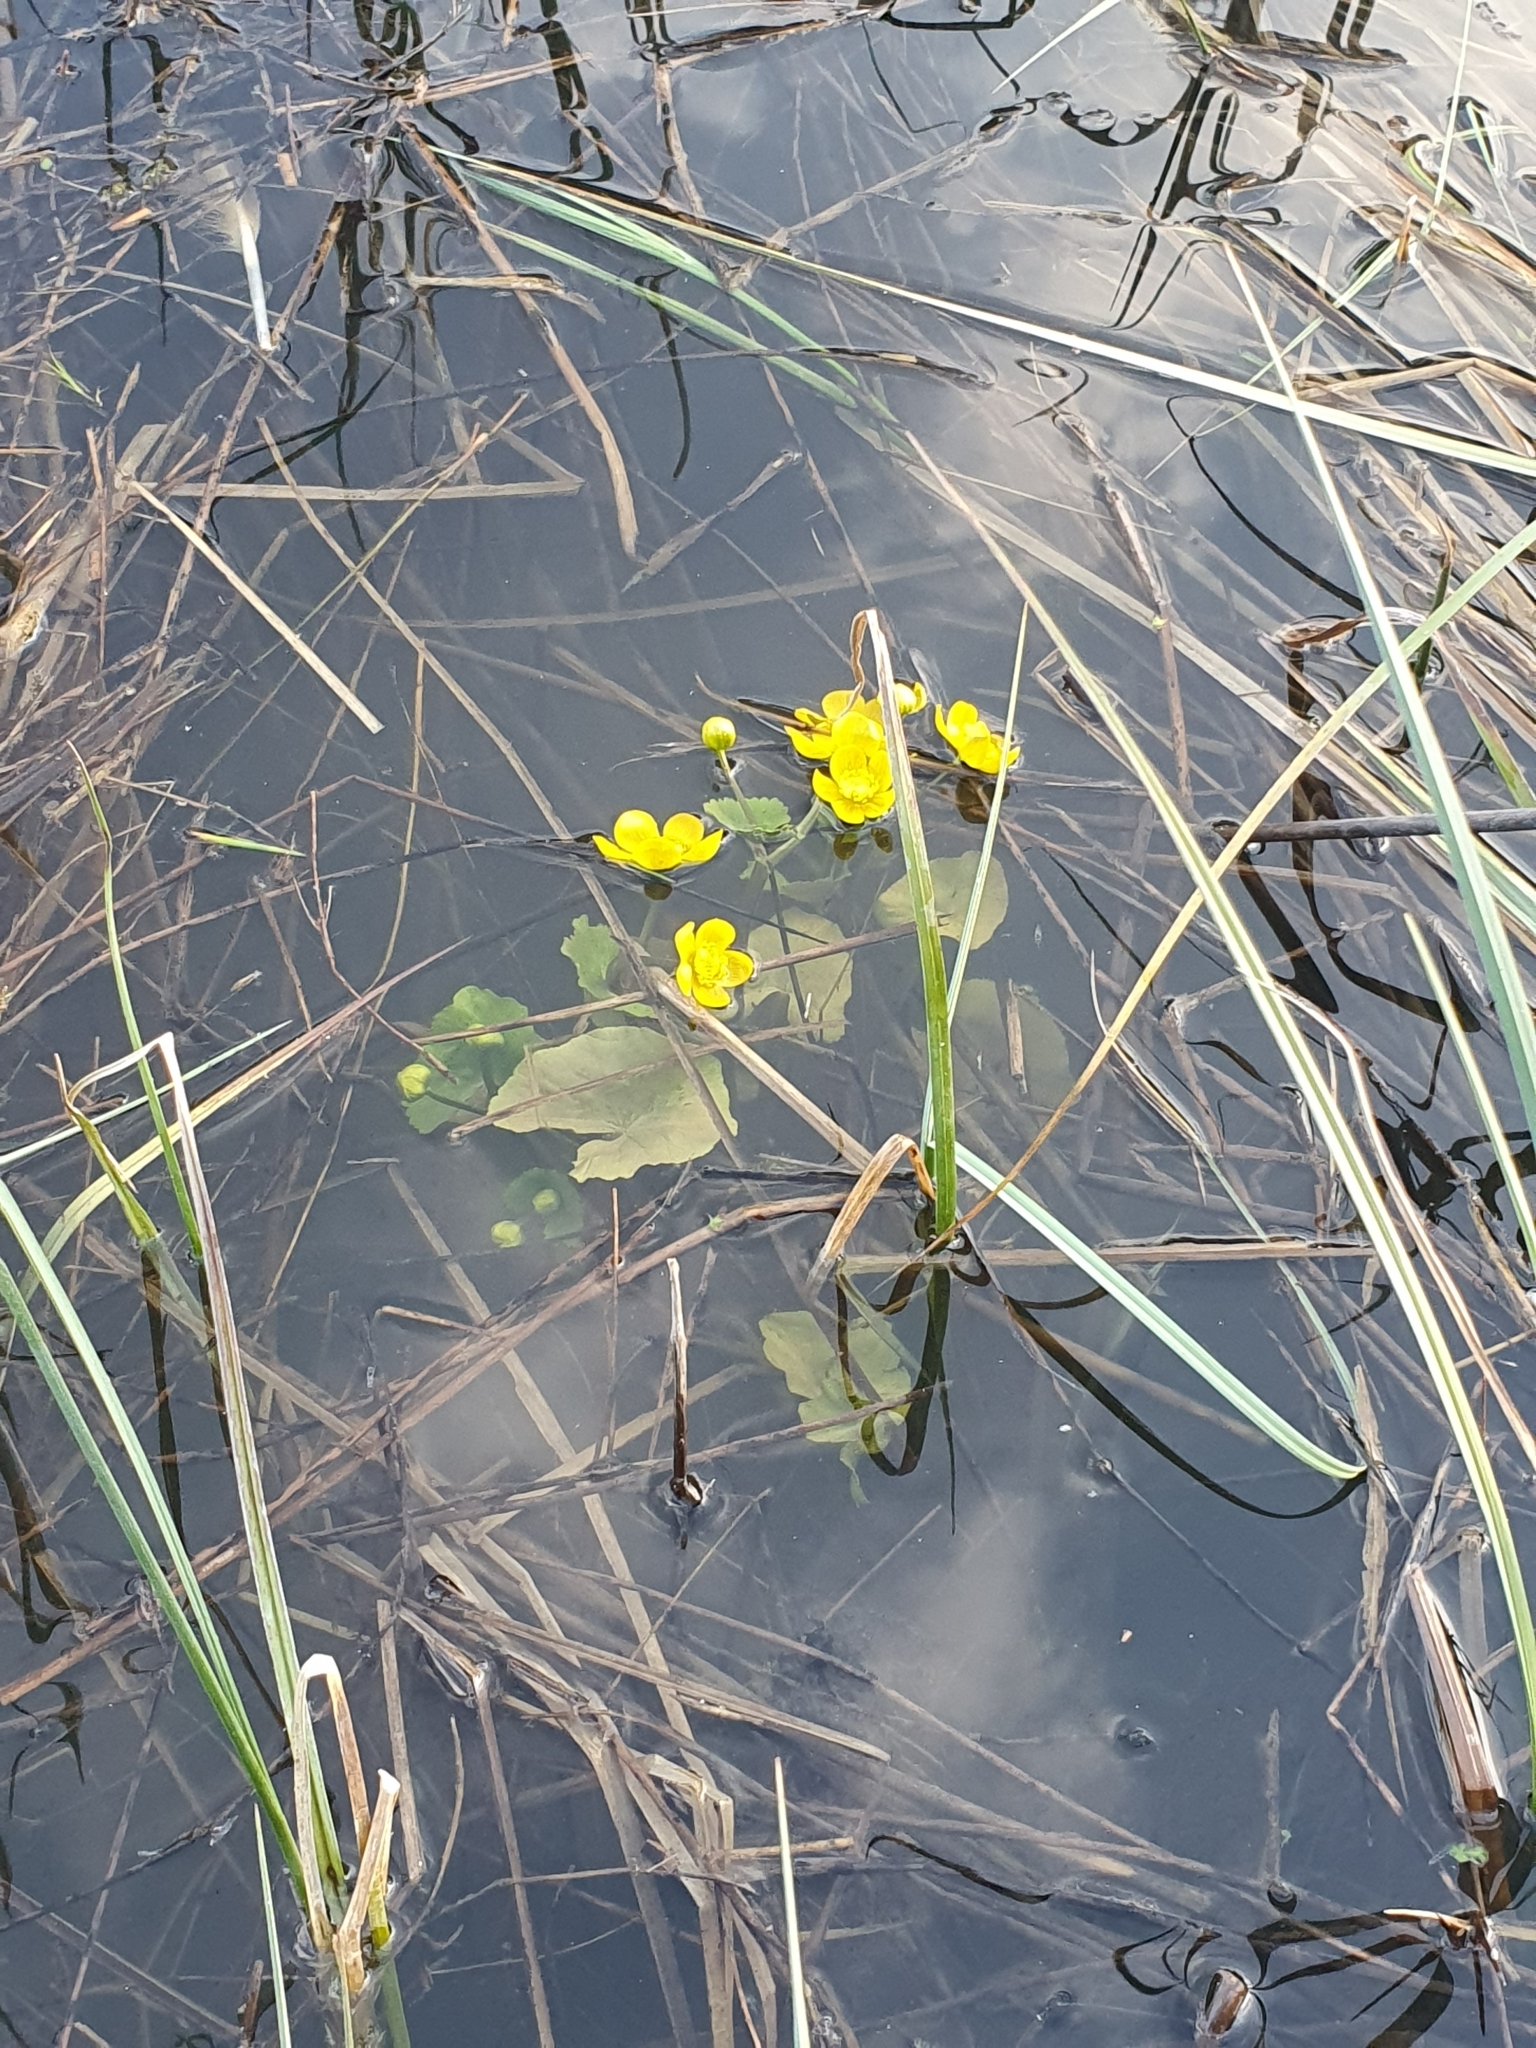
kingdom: Plantae
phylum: Tracheophyta
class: Magnoliopsida
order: Ranunculales
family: Ranunculaceae
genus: Caltha
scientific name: Caltha palustris
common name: Marsh marigold
